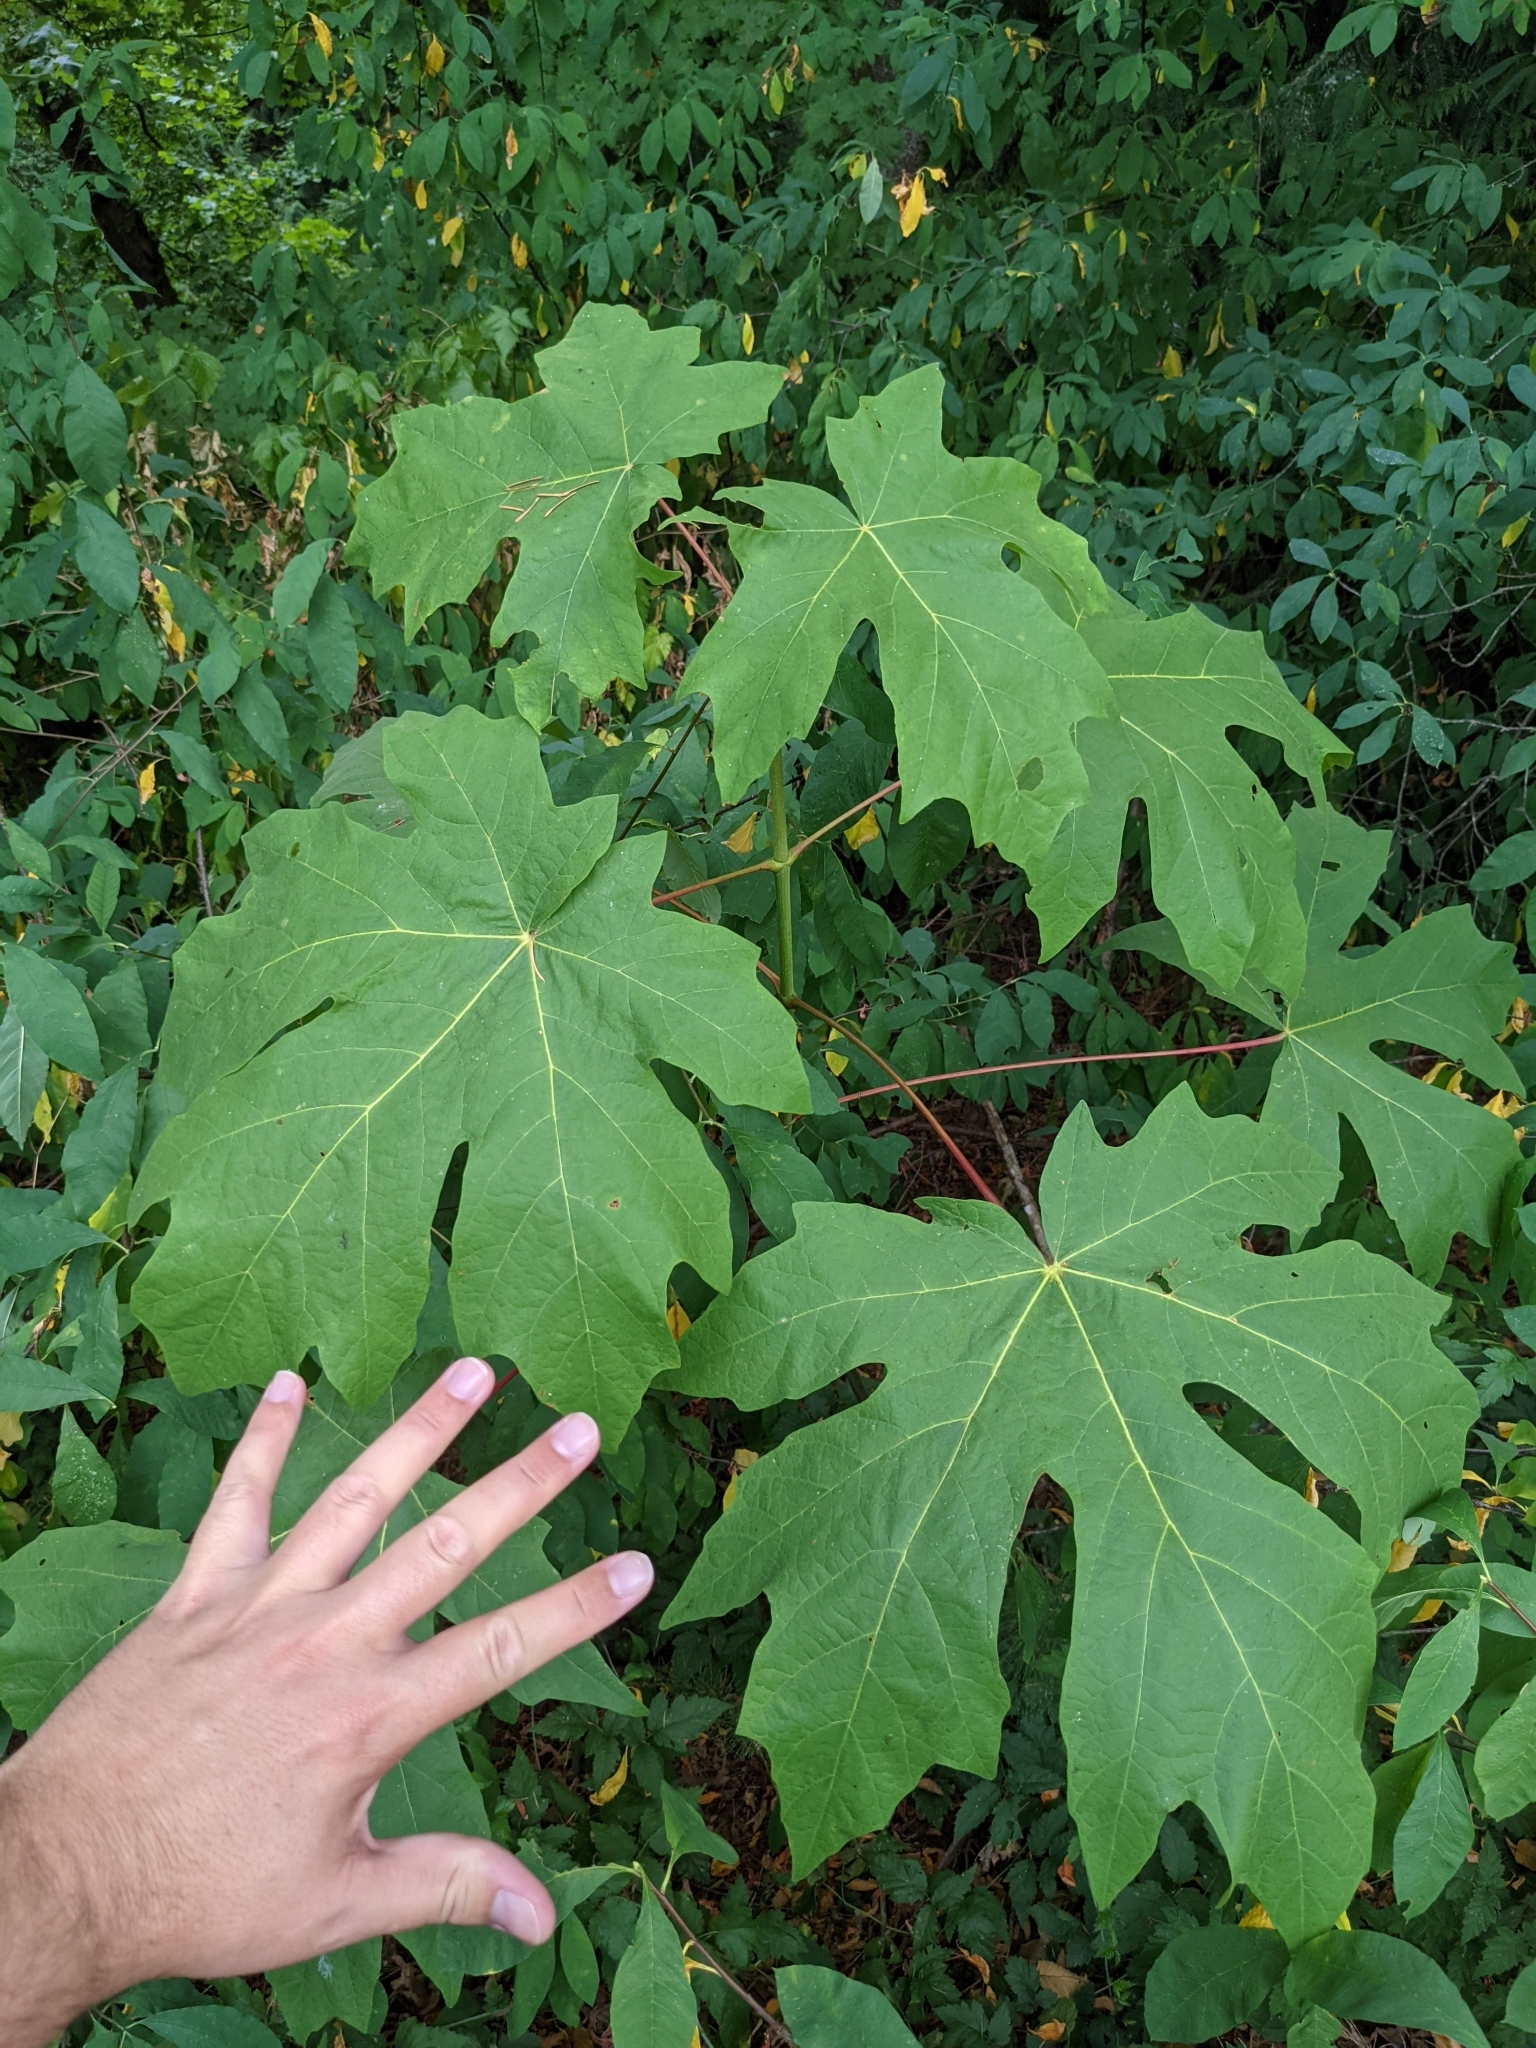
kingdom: Plantae
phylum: Tracheophyta
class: Magnoliopsida
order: Sapindales
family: Sapindaceae
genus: Acer
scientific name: Acer macrophyllum
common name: Oregon maple
